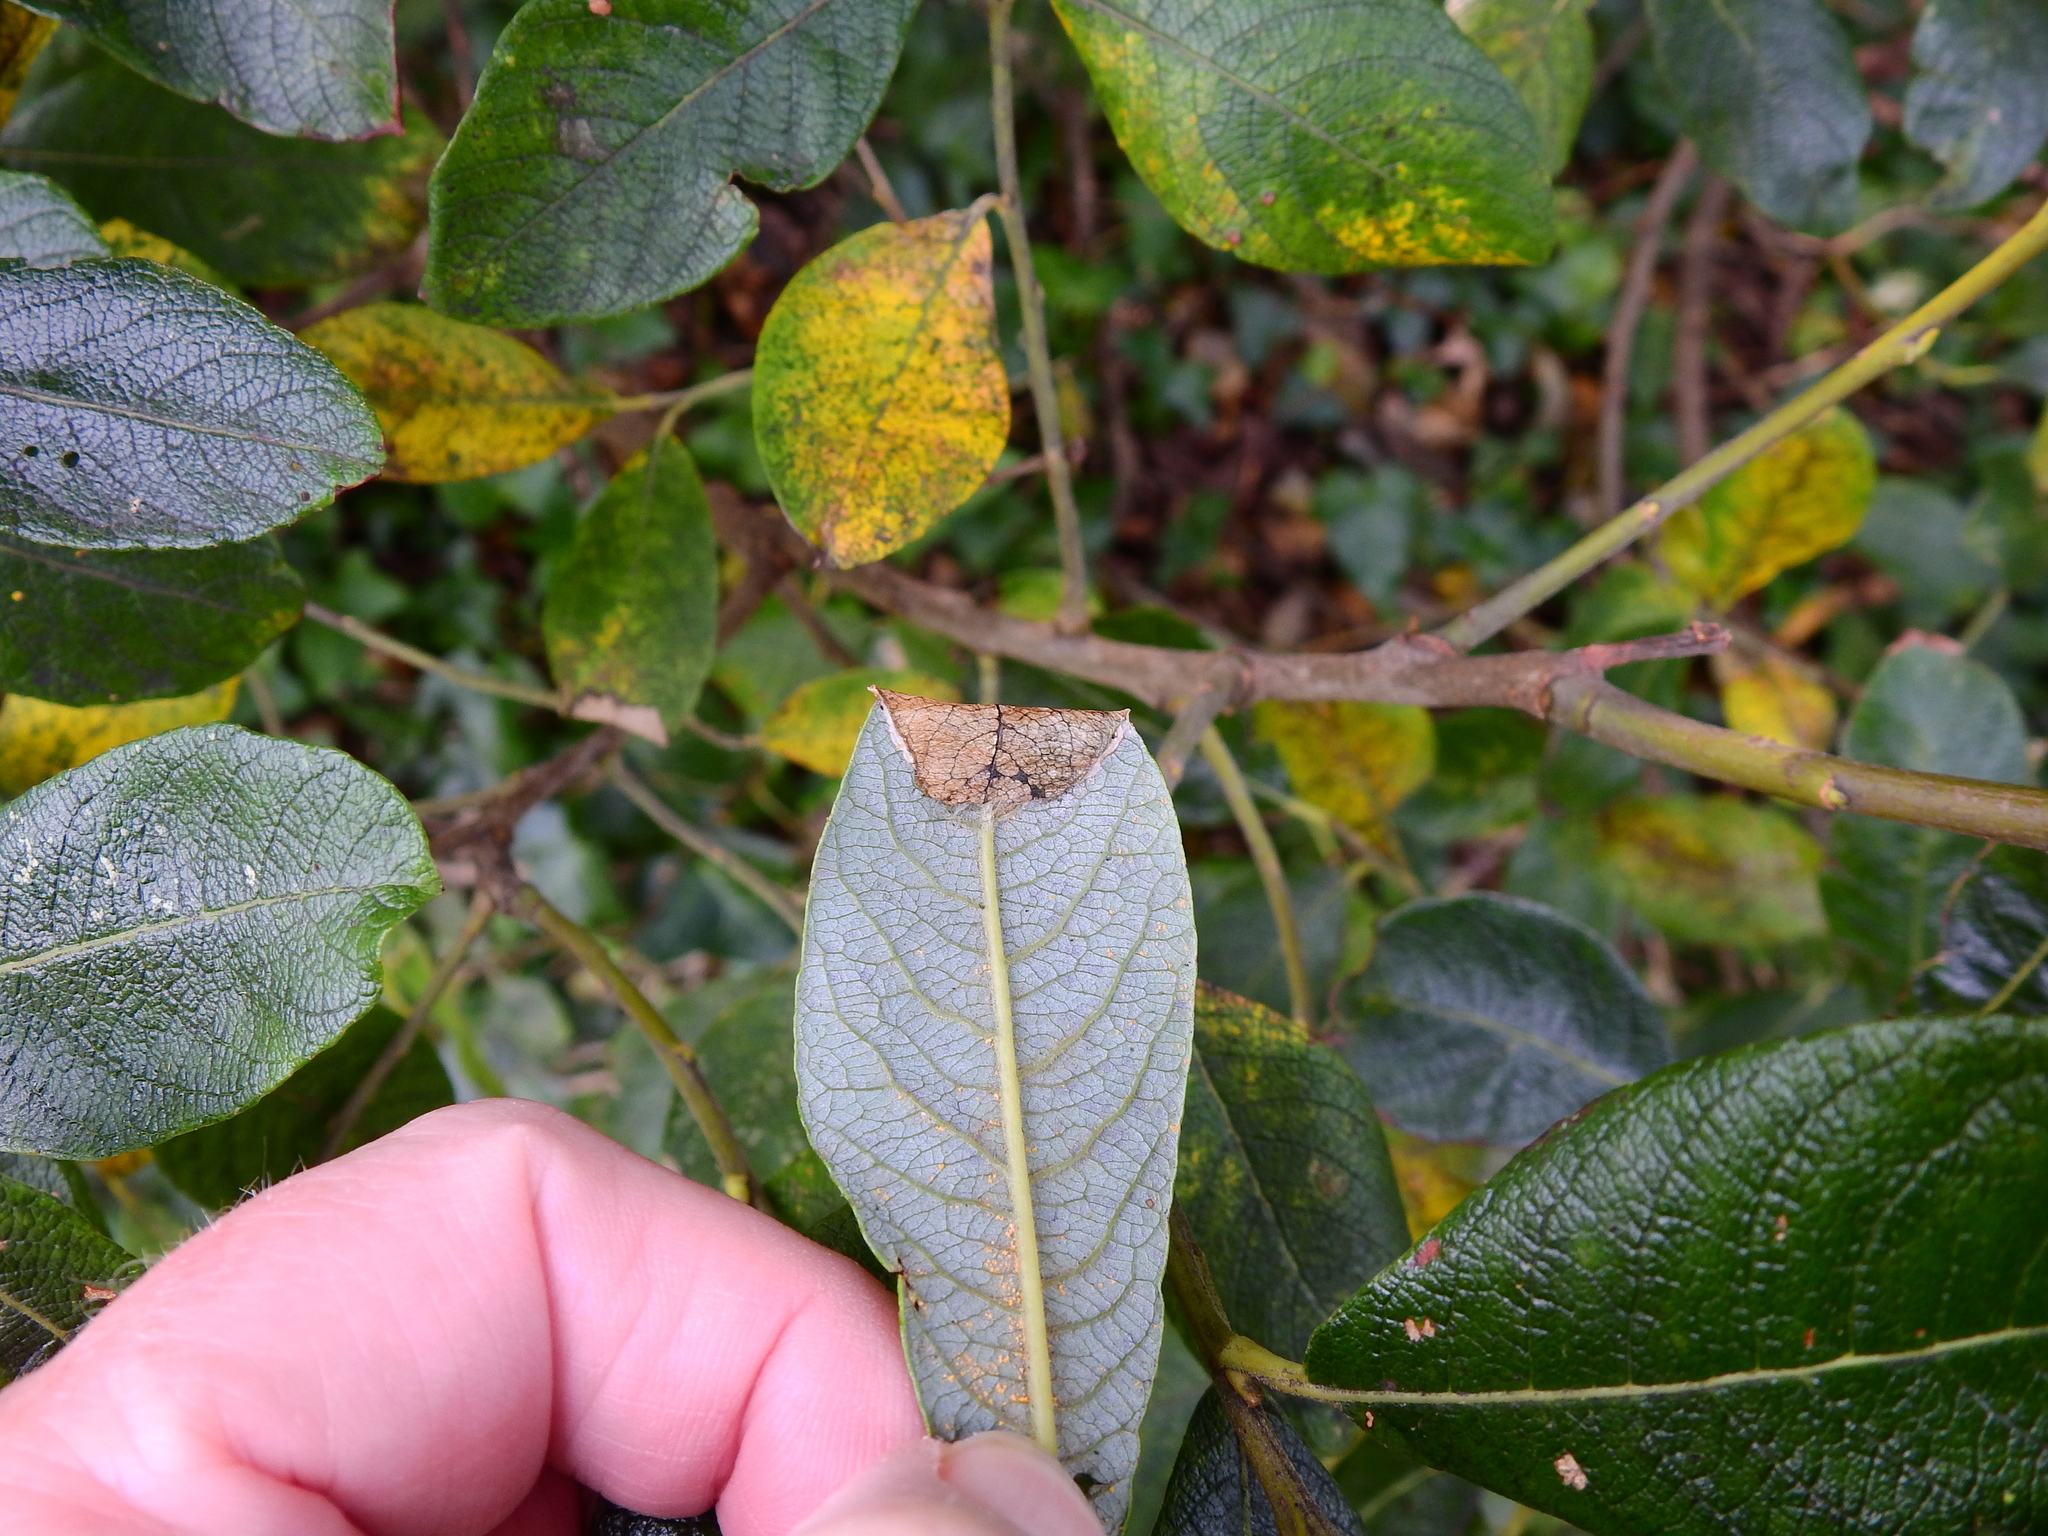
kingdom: Animalia
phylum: Arthropoda
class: Insecta
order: Lepidoptera
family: Gracillariidae
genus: Caloptilia
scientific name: Caloptilia stigmatella
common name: White-triangle slender
